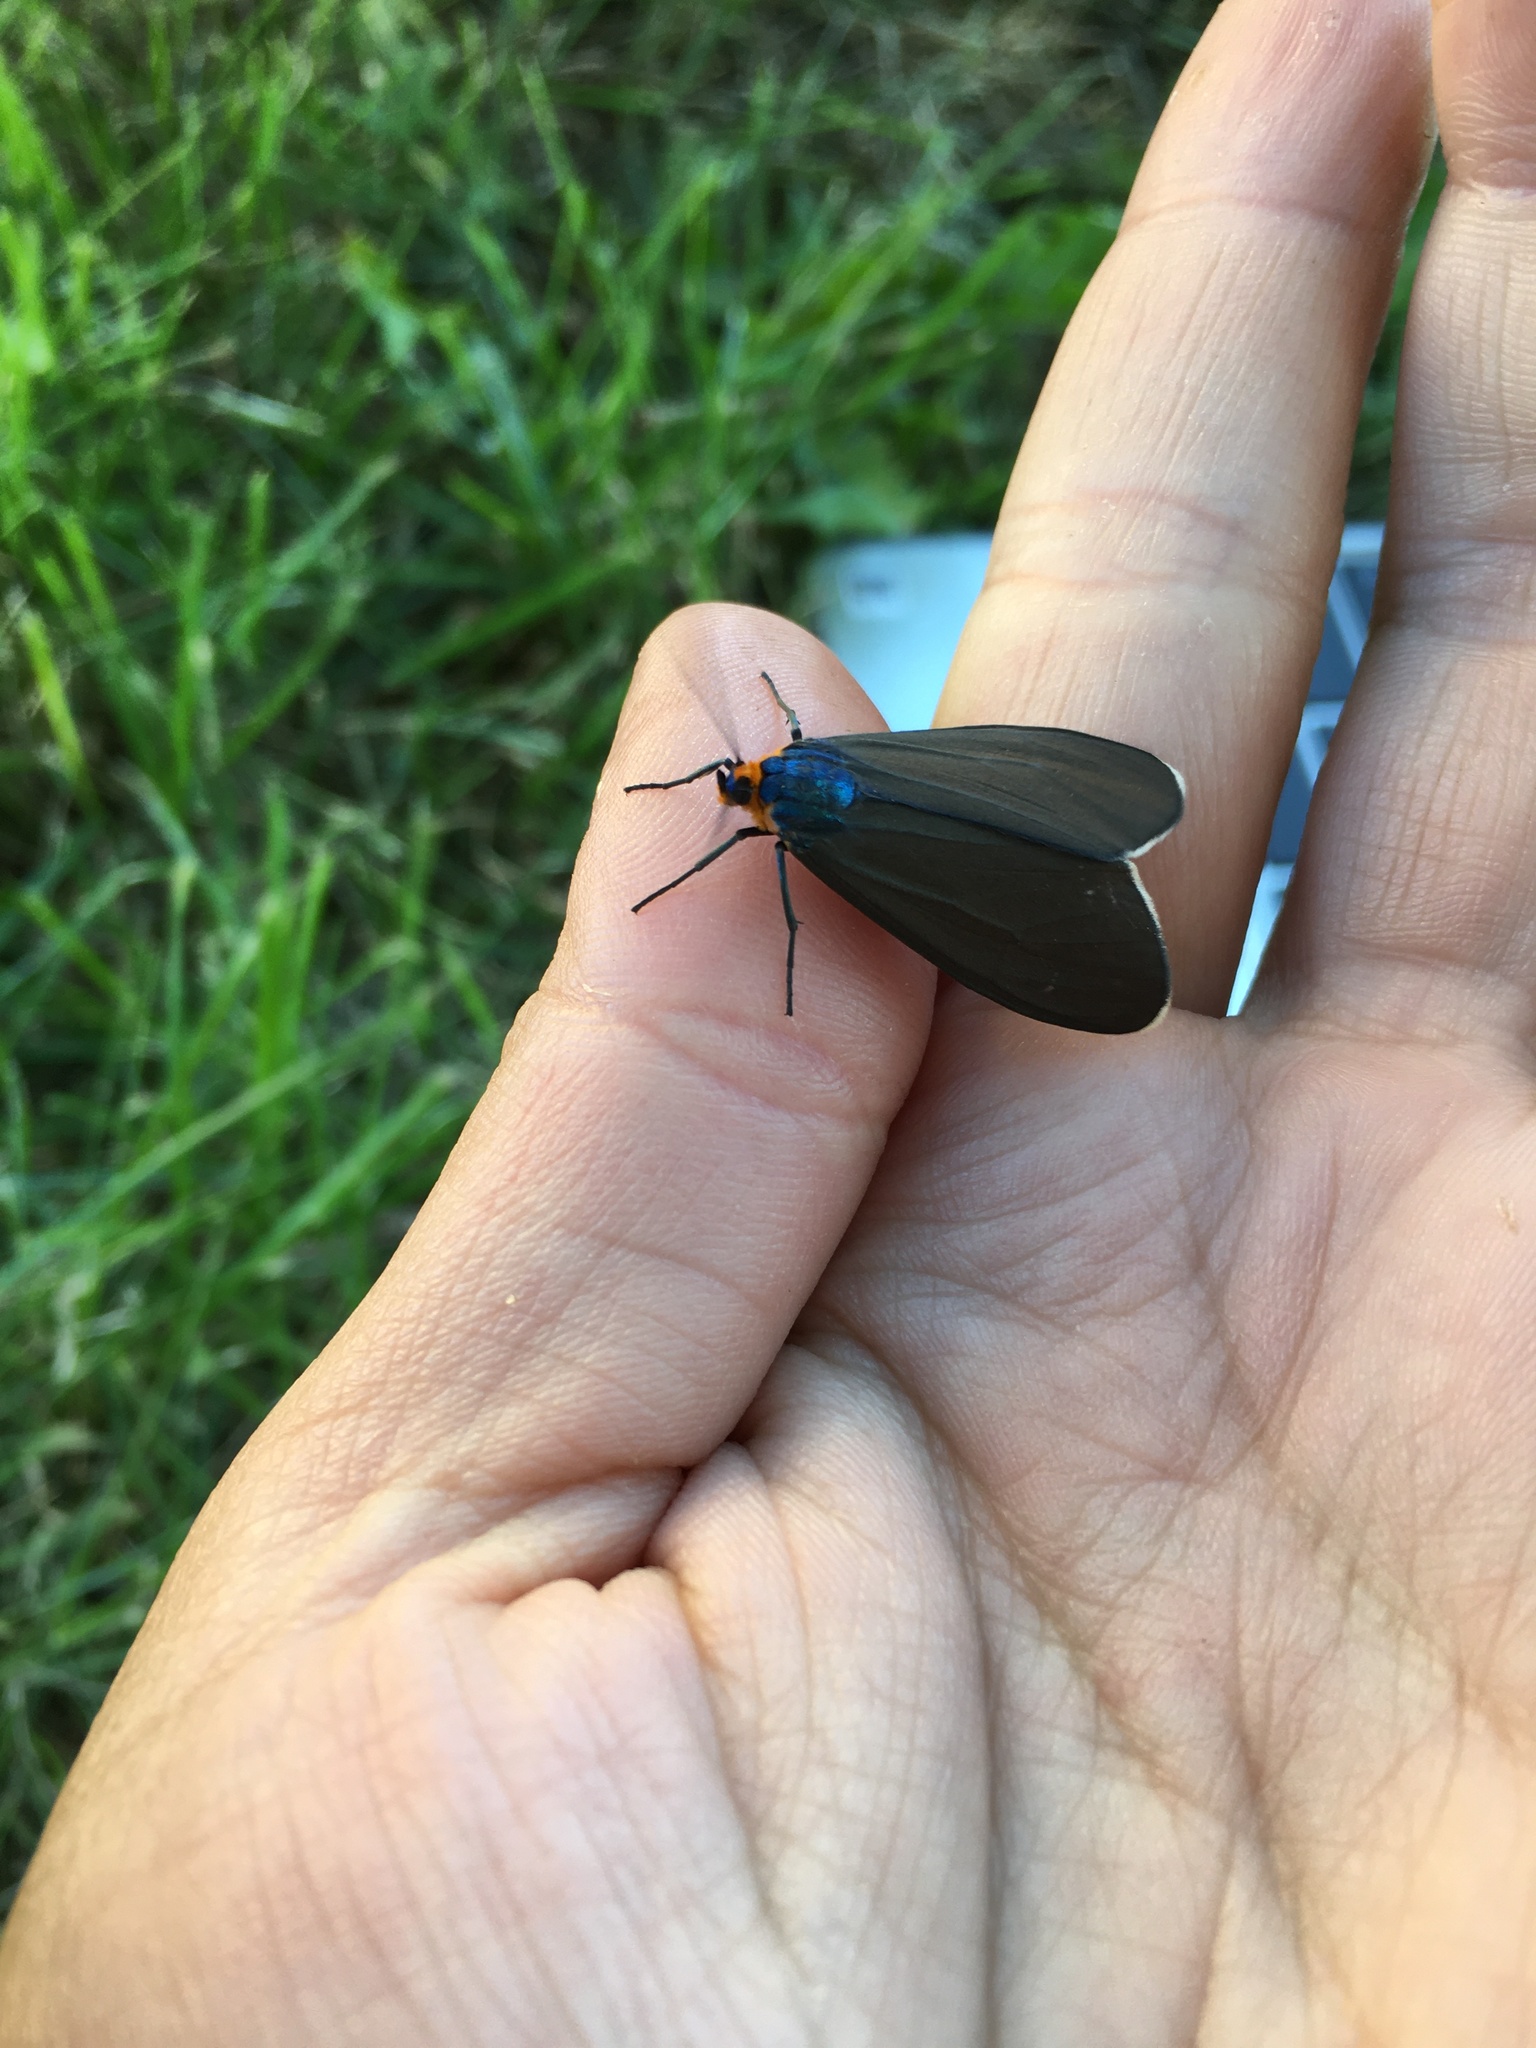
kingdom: Animalia
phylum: Arthropoda
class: Insecta
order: Lepidoptera
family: Erebidae
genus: Ctenucha
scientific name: Ctenucha virginica
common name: Virginia ctenucha moth
